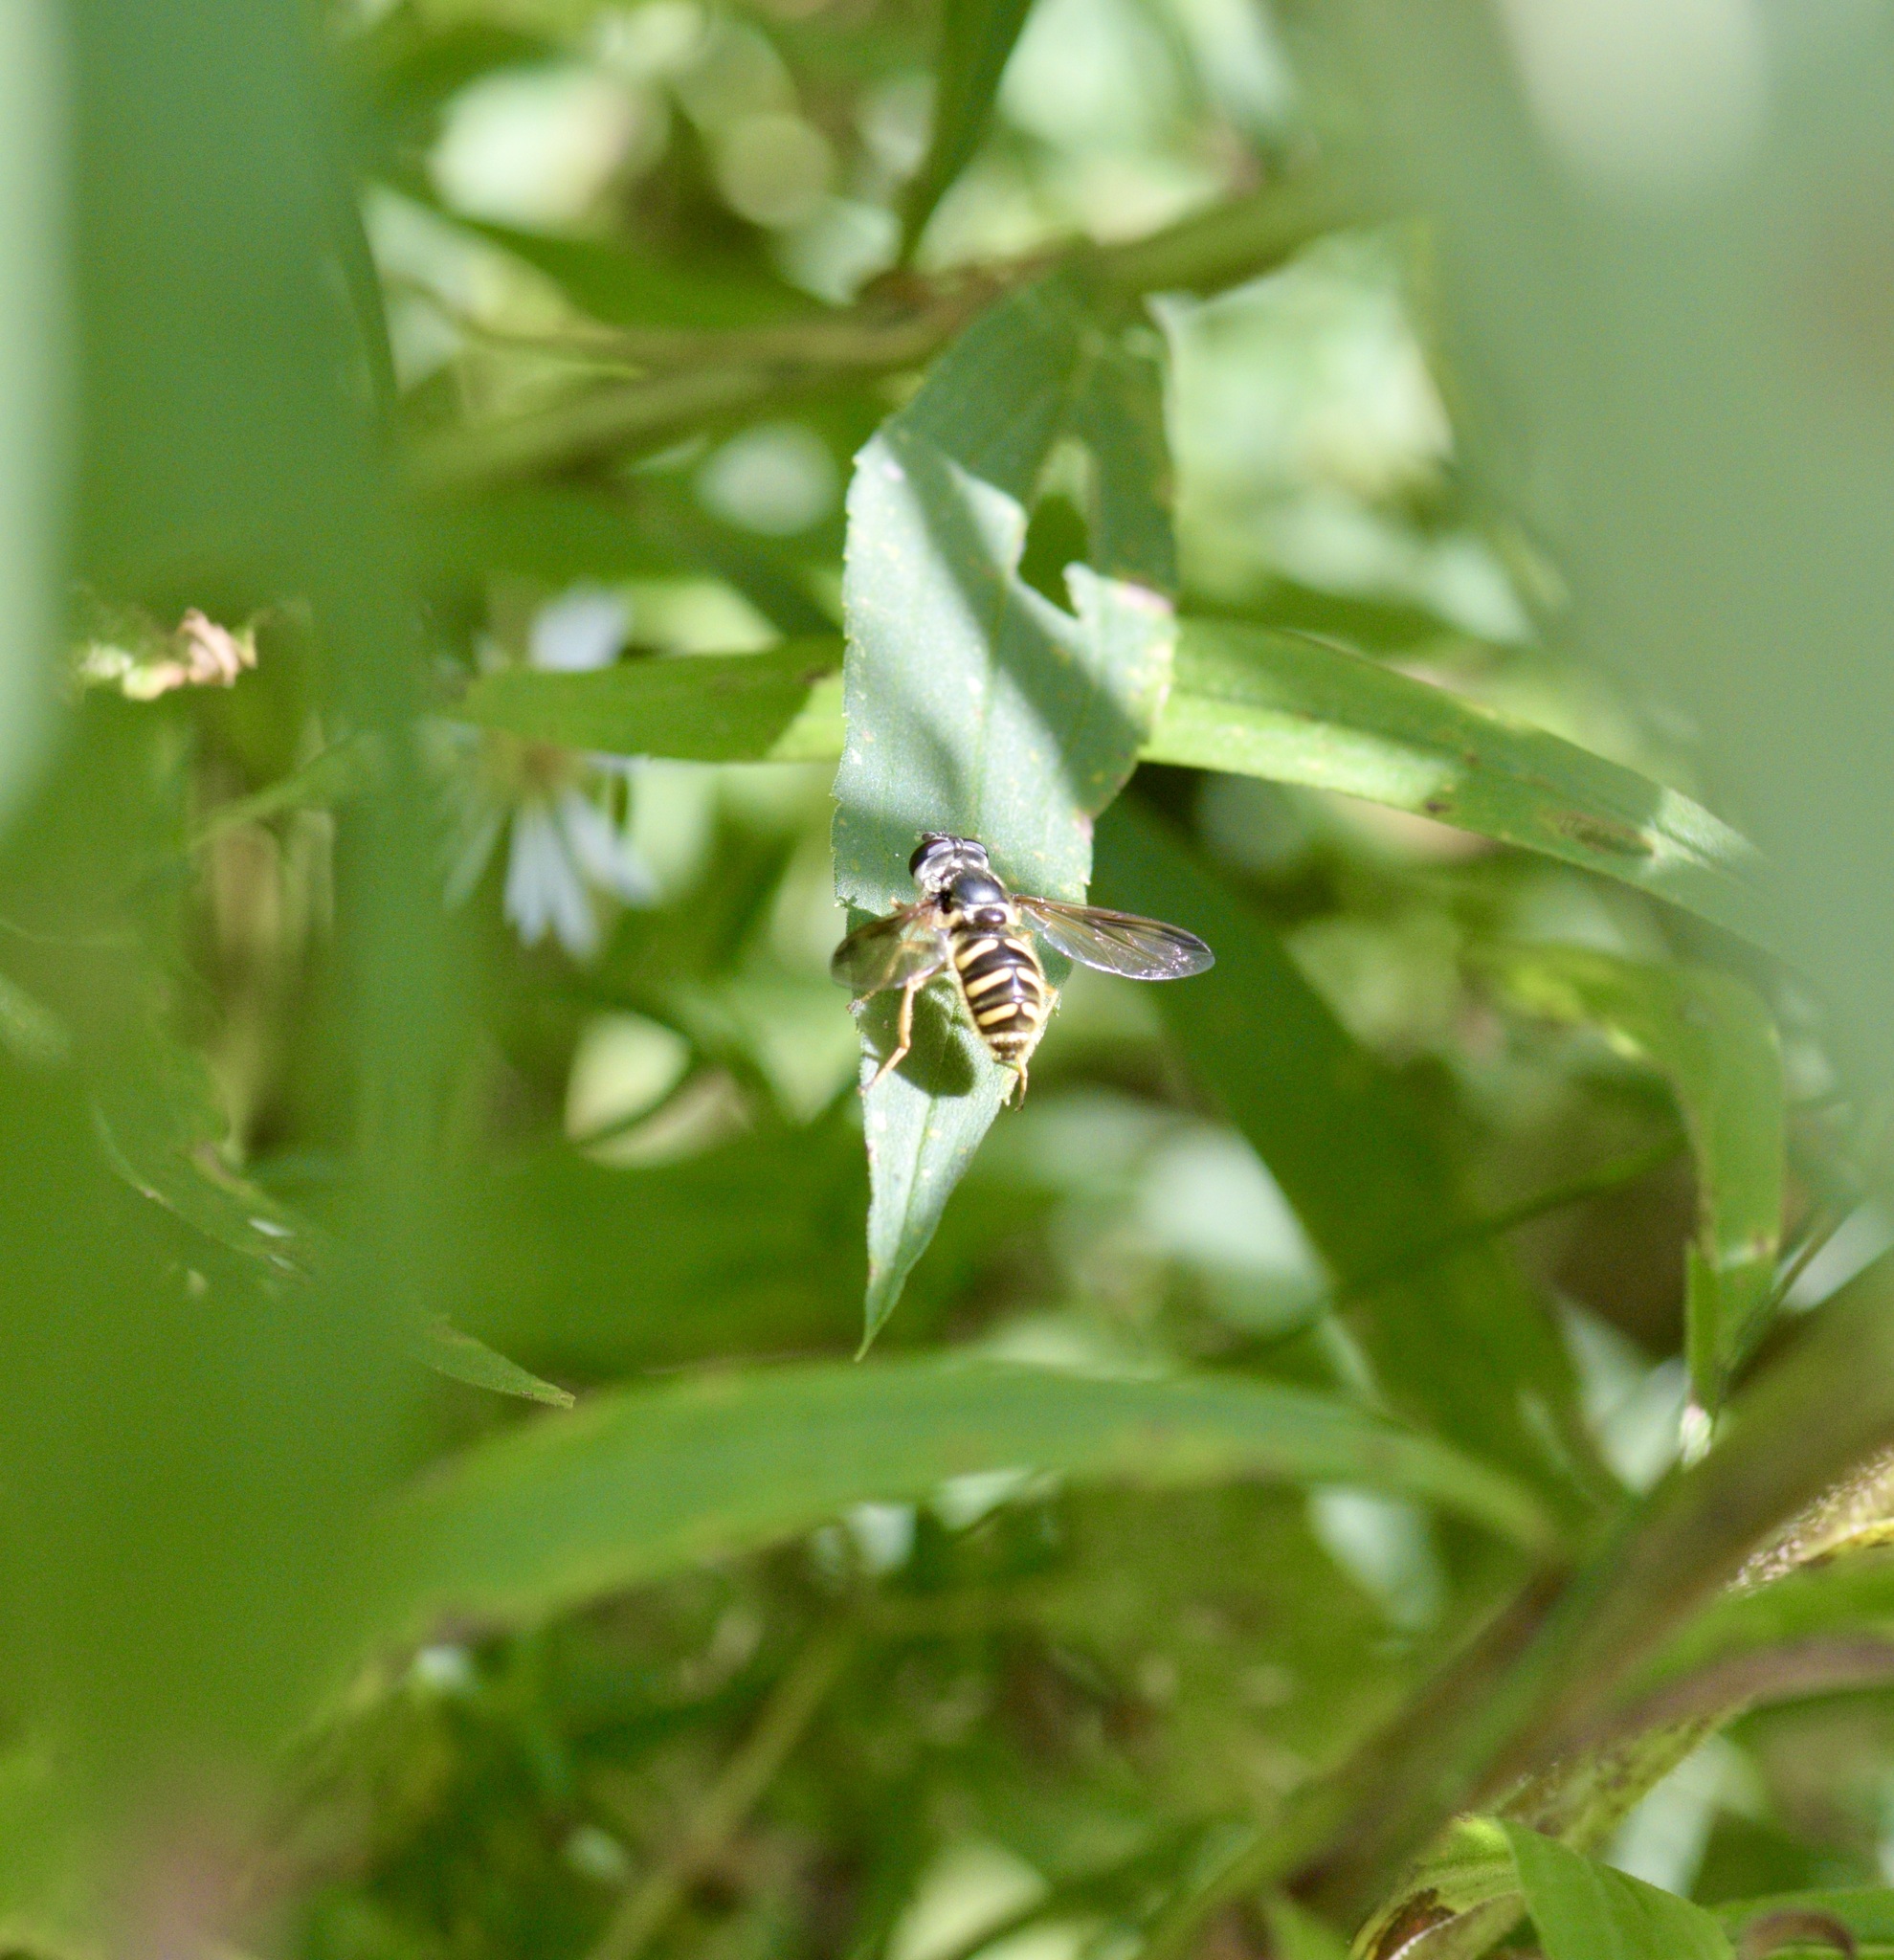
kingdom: Animalia
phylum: Arthropoda
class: Insecta
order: Diptera
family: Syrphidae
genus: Sericomyia
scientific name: Sericomyia chrysotoxoides
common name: Oblique-banded pond fly
